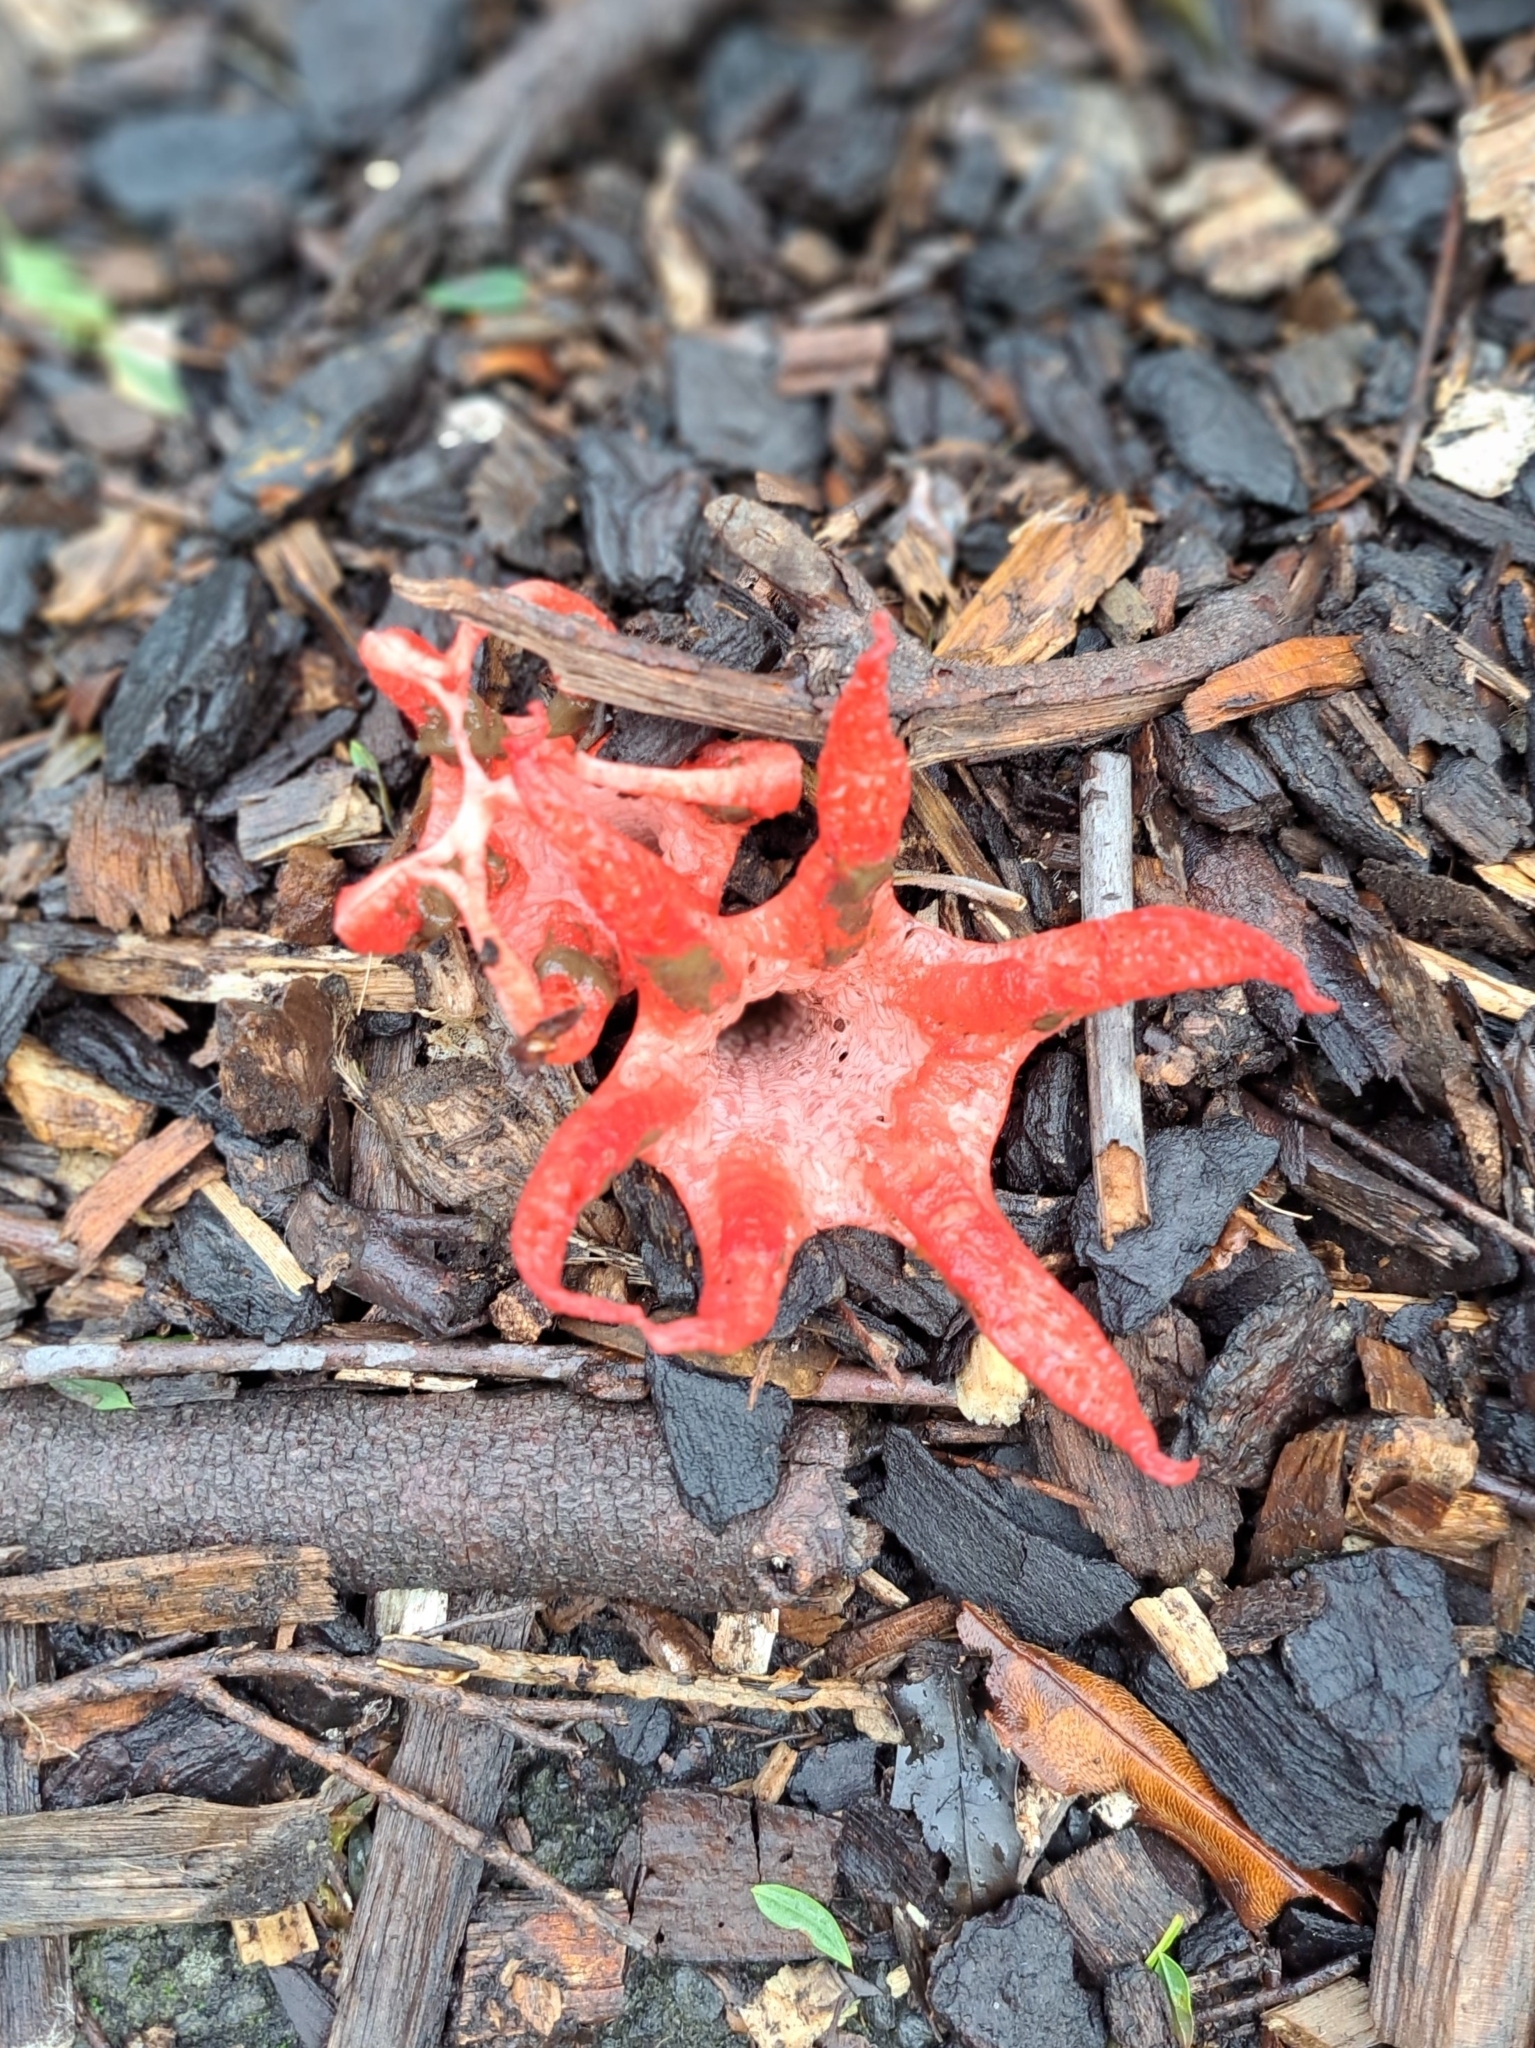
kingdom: Fungi
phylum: Basidiomycota
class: Agaricomycetes
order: Phallales
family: Phallaceae
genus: Clathrus
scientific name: Clathrus archeri
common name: Devil's fingers
